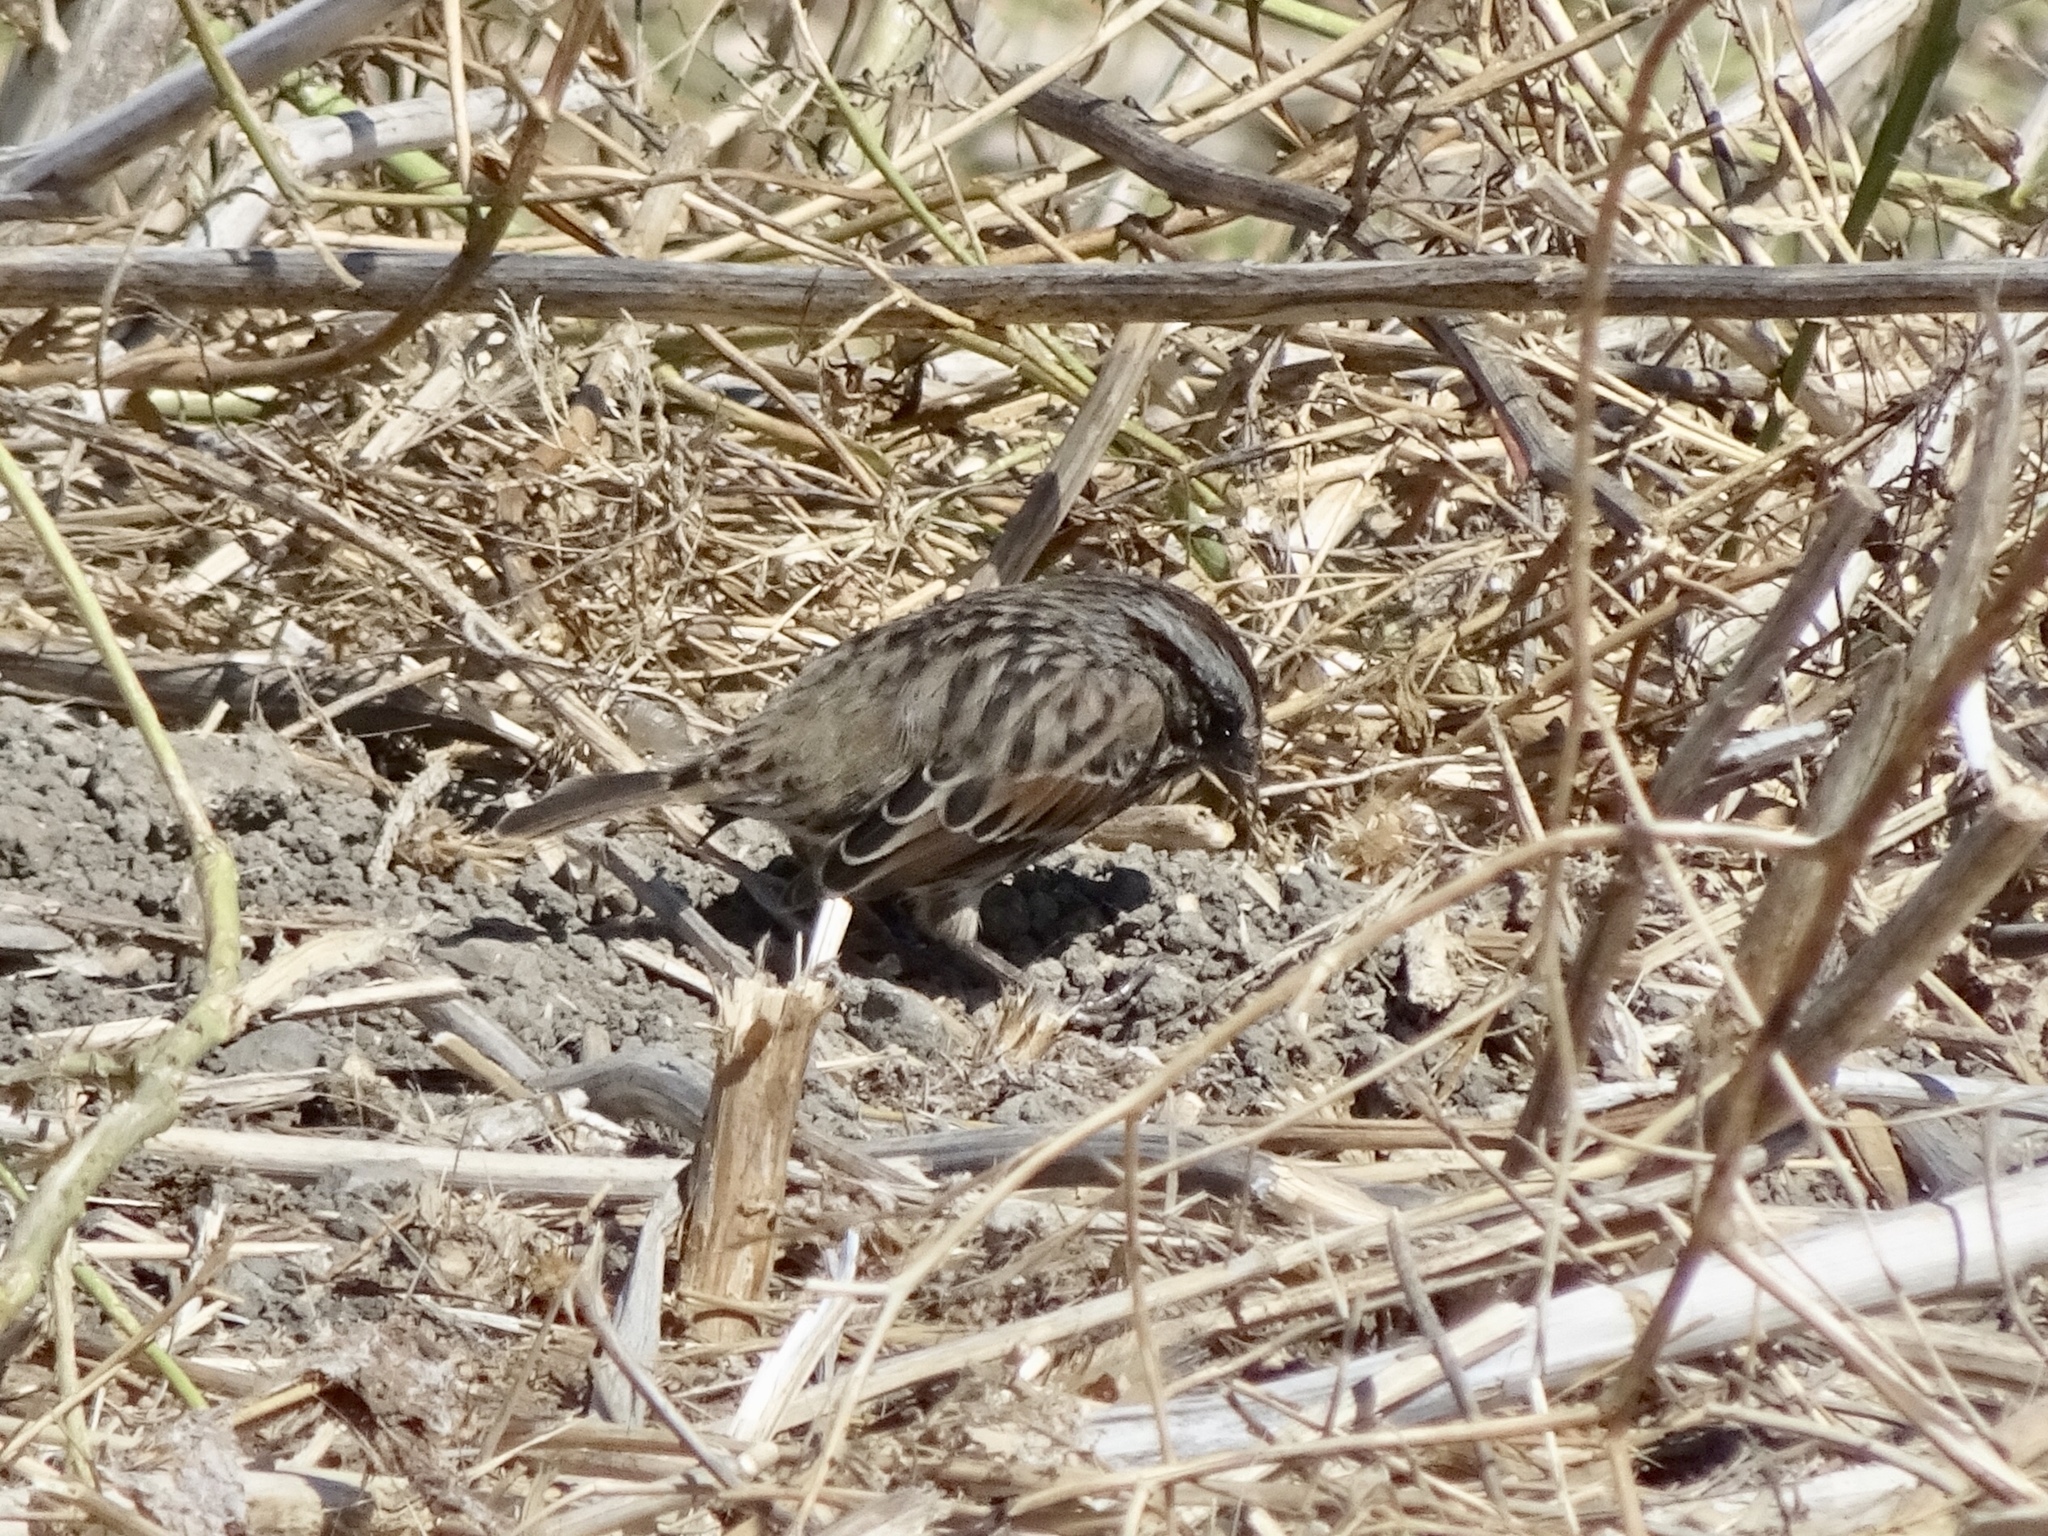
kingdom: Animalia
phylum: Chordata
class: Aves
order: Passeriformes
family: Passerellidae
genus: Melospiza
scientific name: Melospiza melodia
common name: Song sparrow
